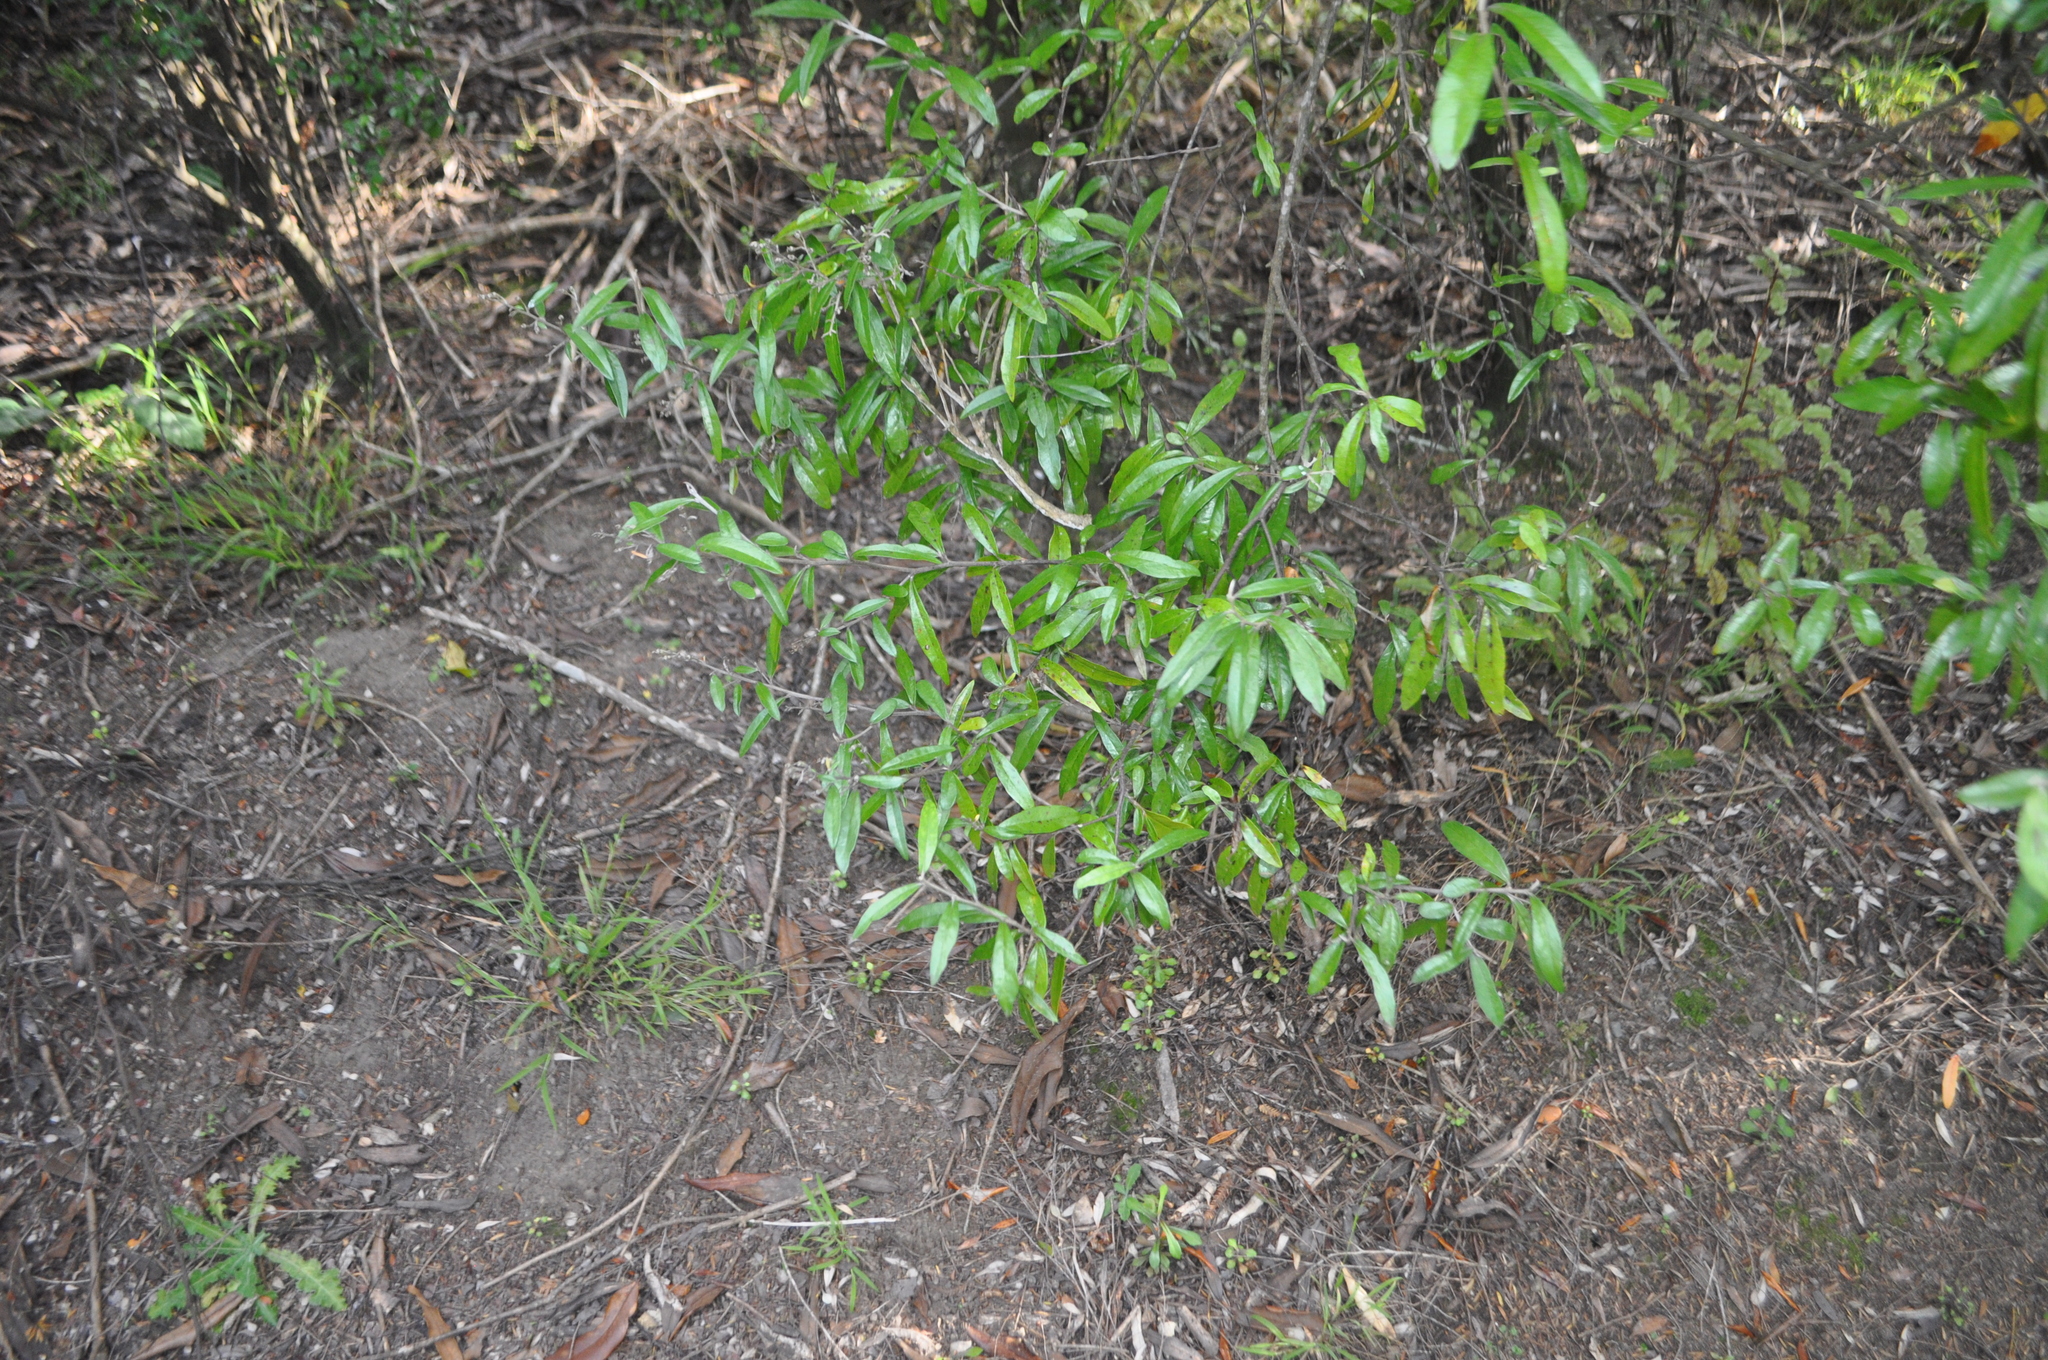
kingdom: Plantae
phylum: Tracheophyta
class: Magnoliopsida
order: Laurales
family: Lauraceae
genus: Beilschmiedia
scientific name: Beilschmiedia tawa
